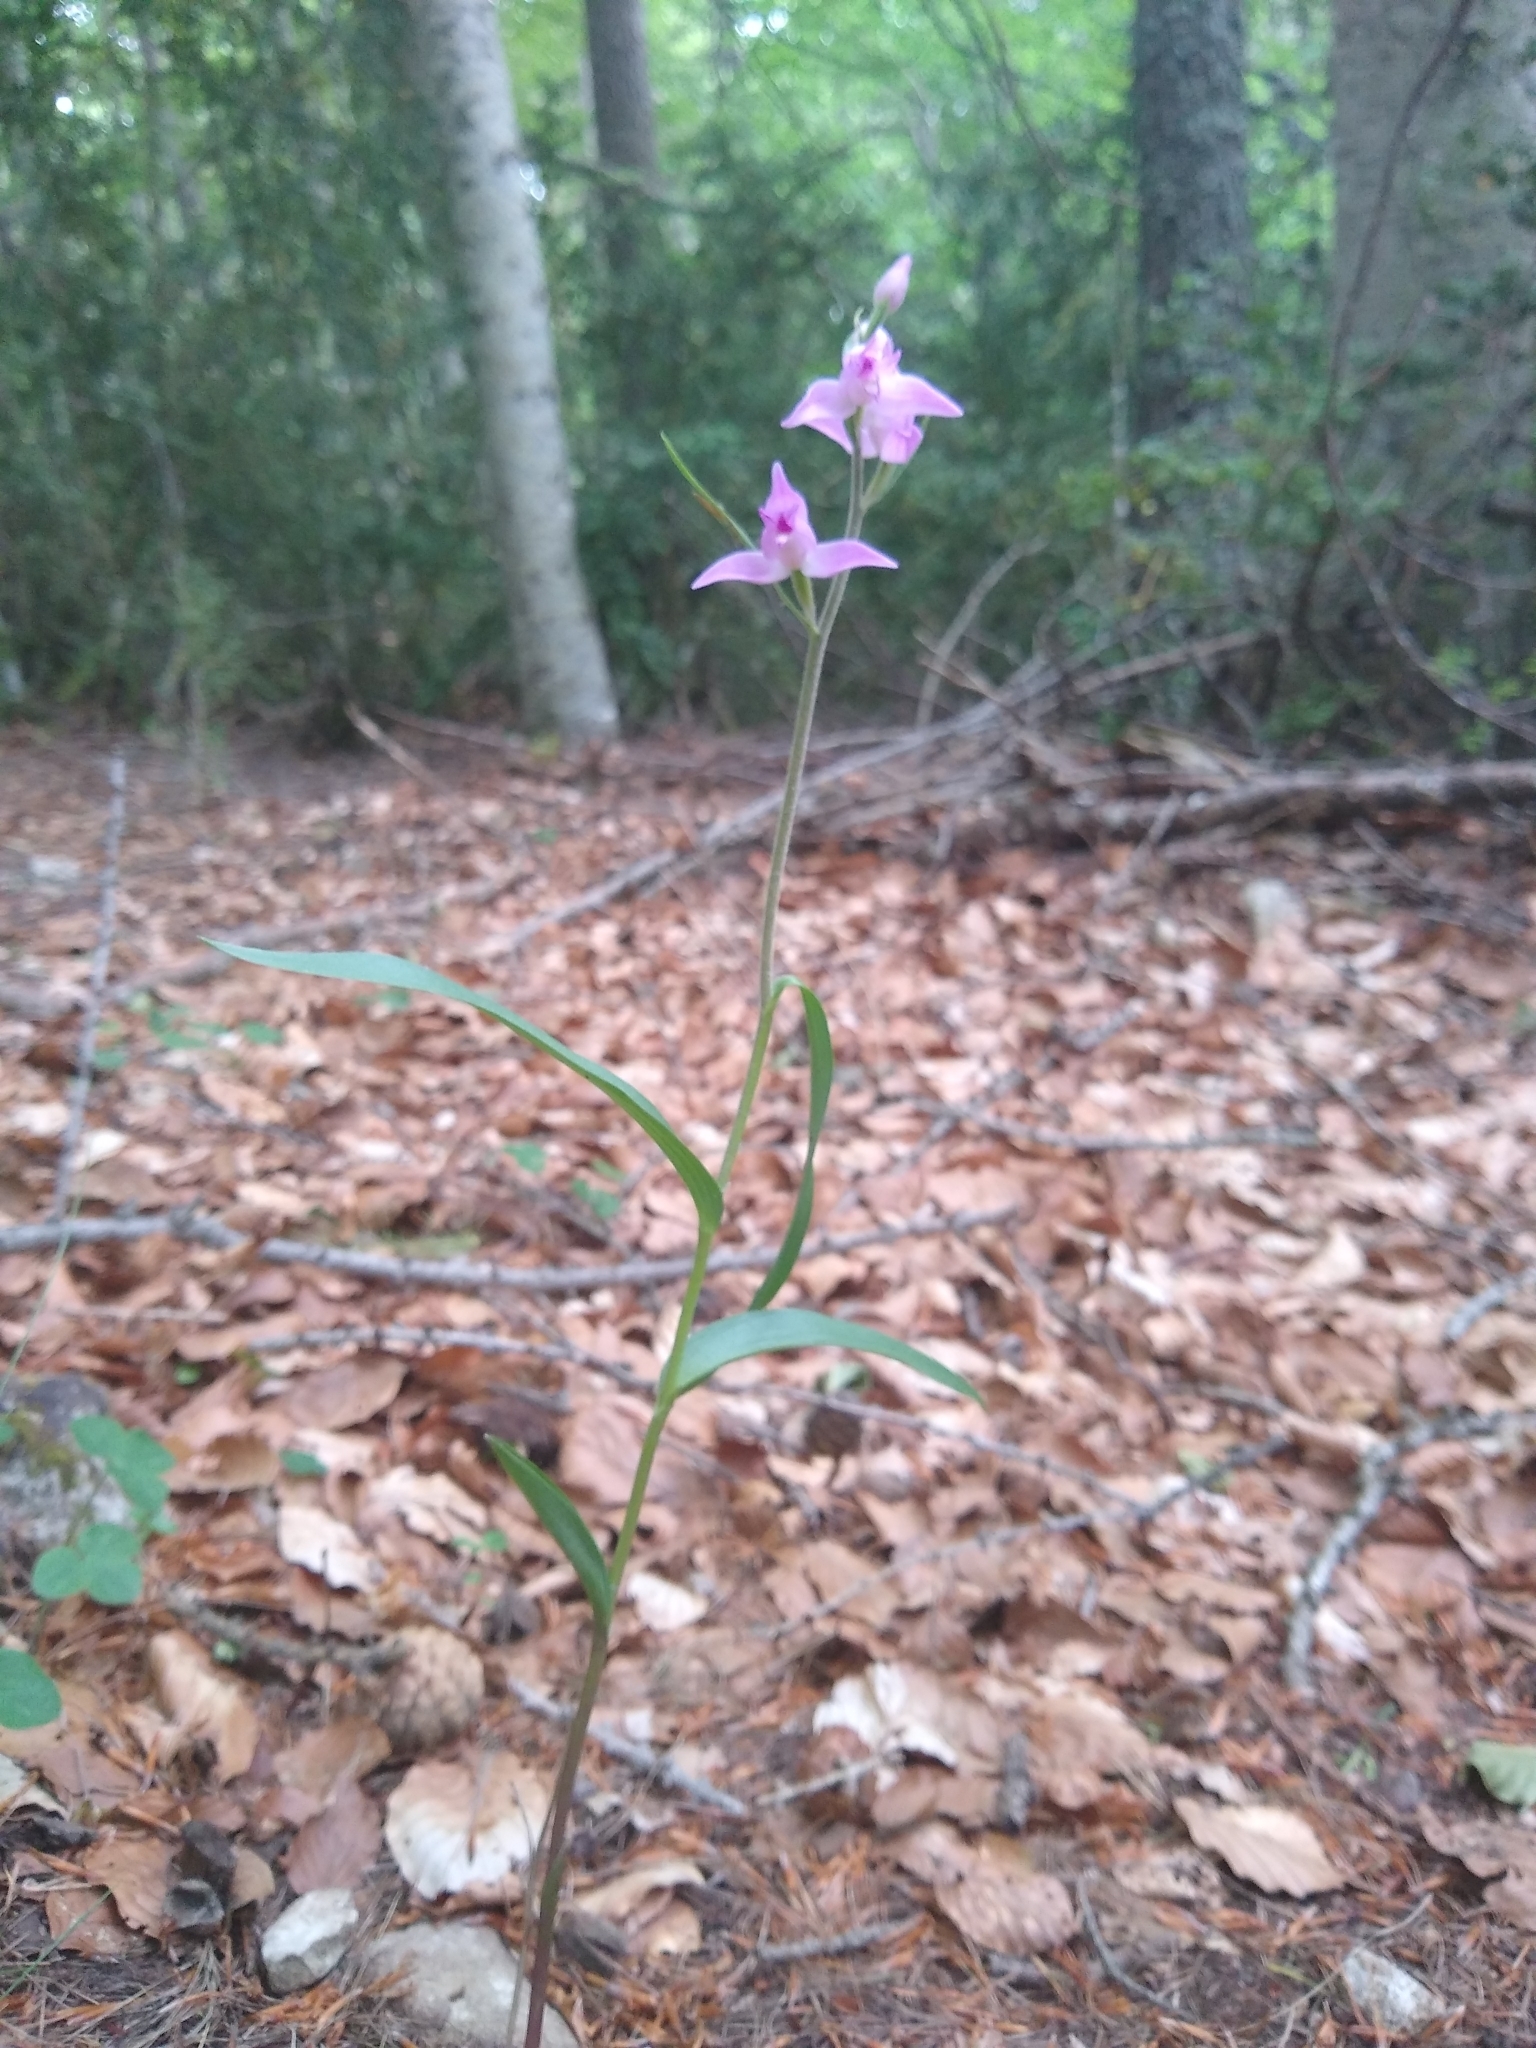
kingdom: Plantae
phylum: Tracheophyta
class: Liliopsida
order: Asparagales
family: Orchidaceae
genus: Cephalanthera
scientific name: Cephalanthera rubra
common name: Red helleborine
